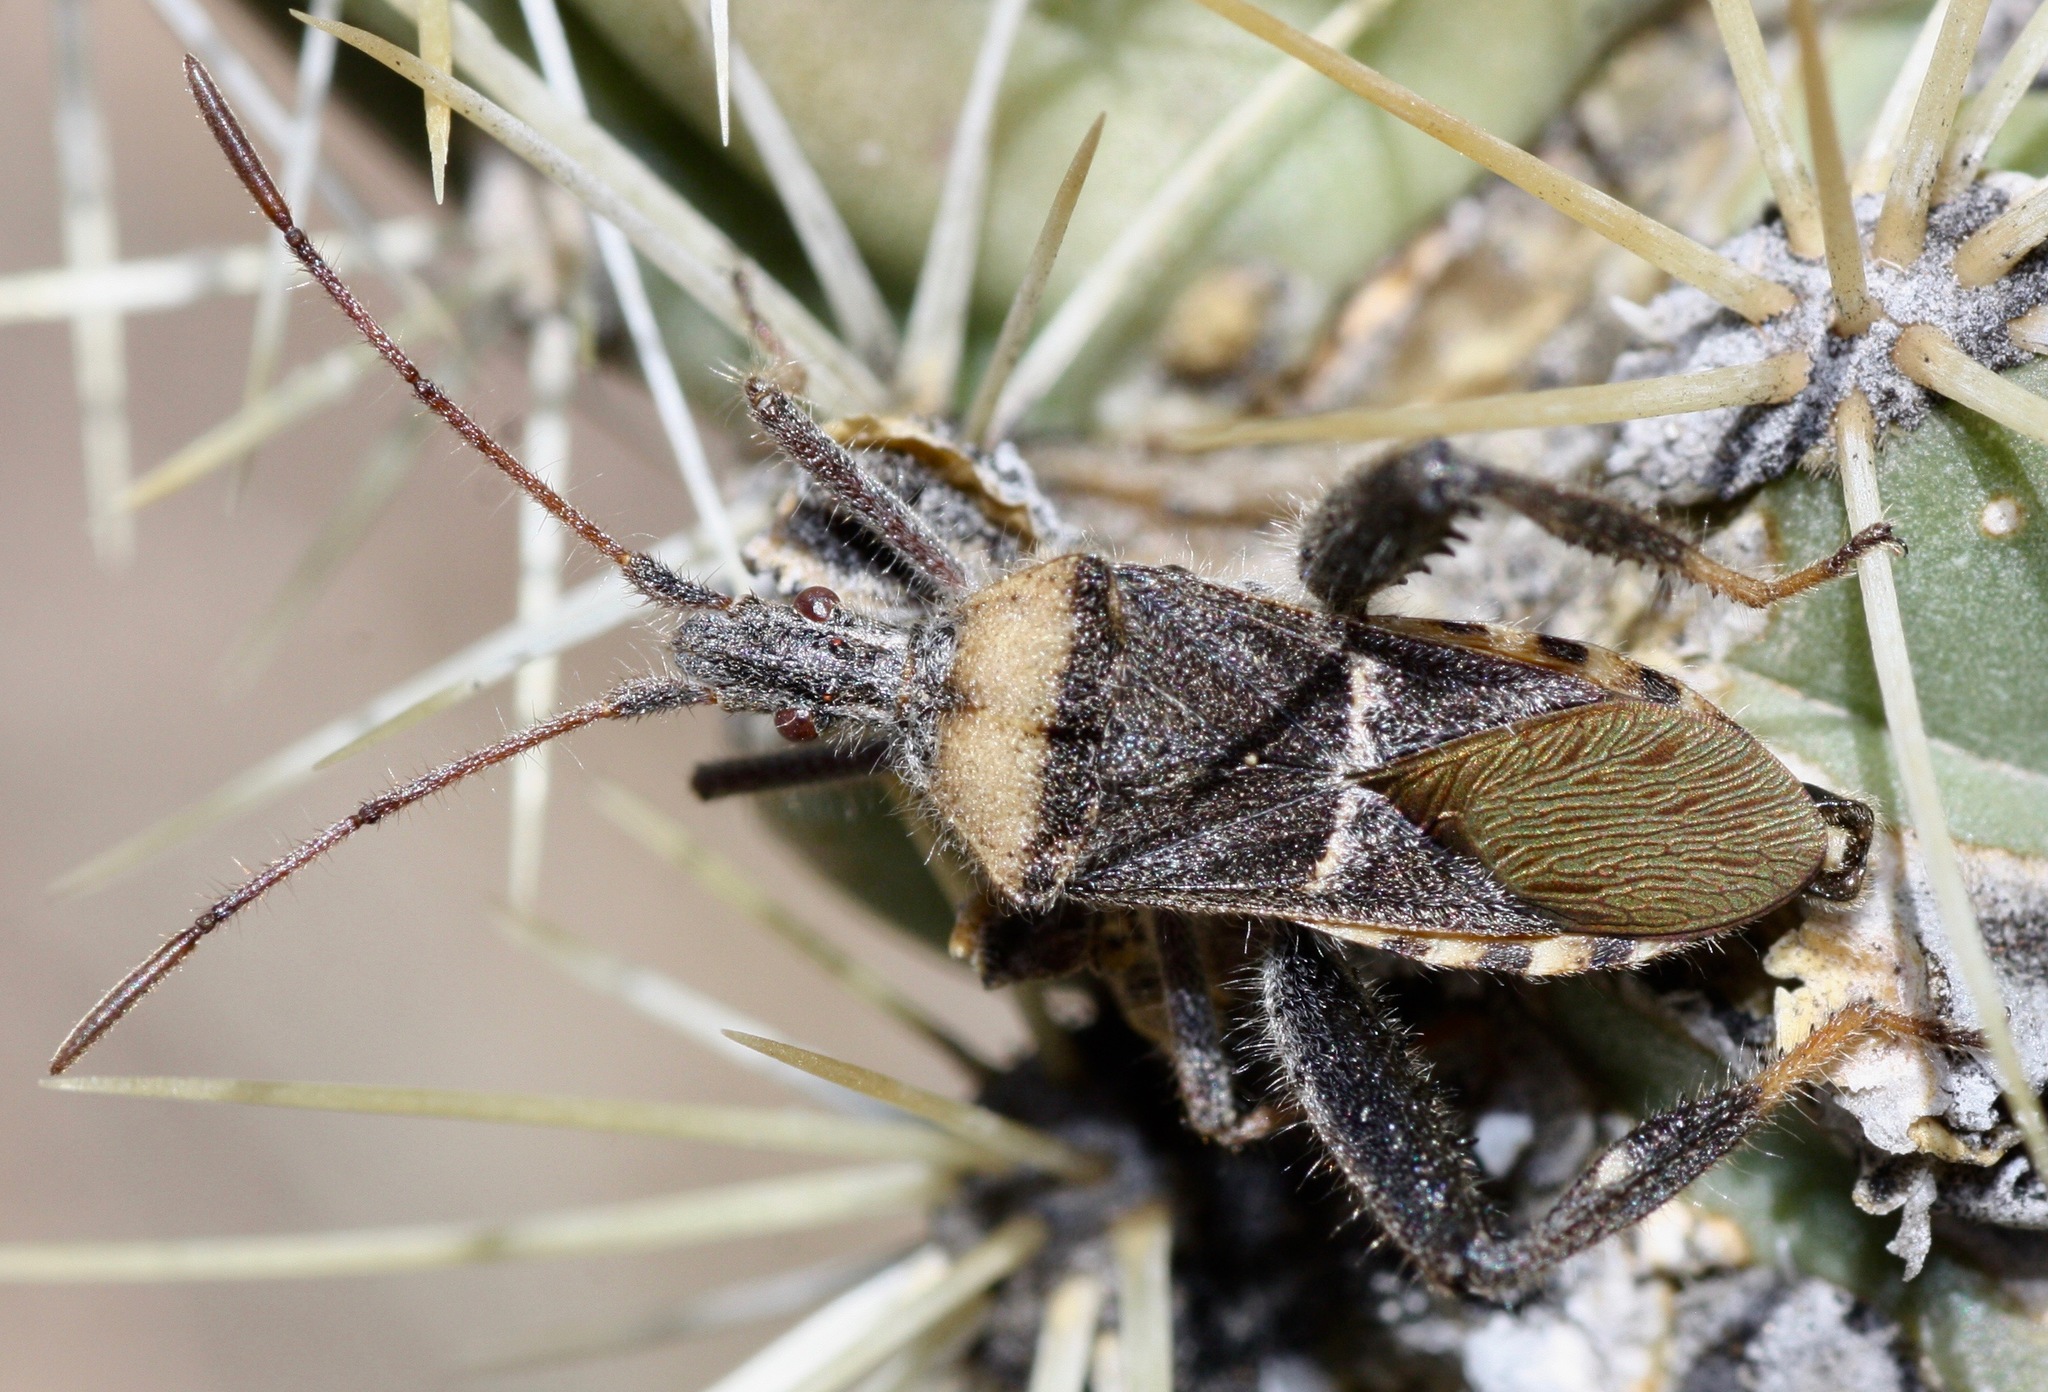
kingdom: Animalia
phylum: Arthropoda
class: Insecta
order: Hemiptera
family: Coreidae
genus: Narnia
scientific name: Narnia snowi
